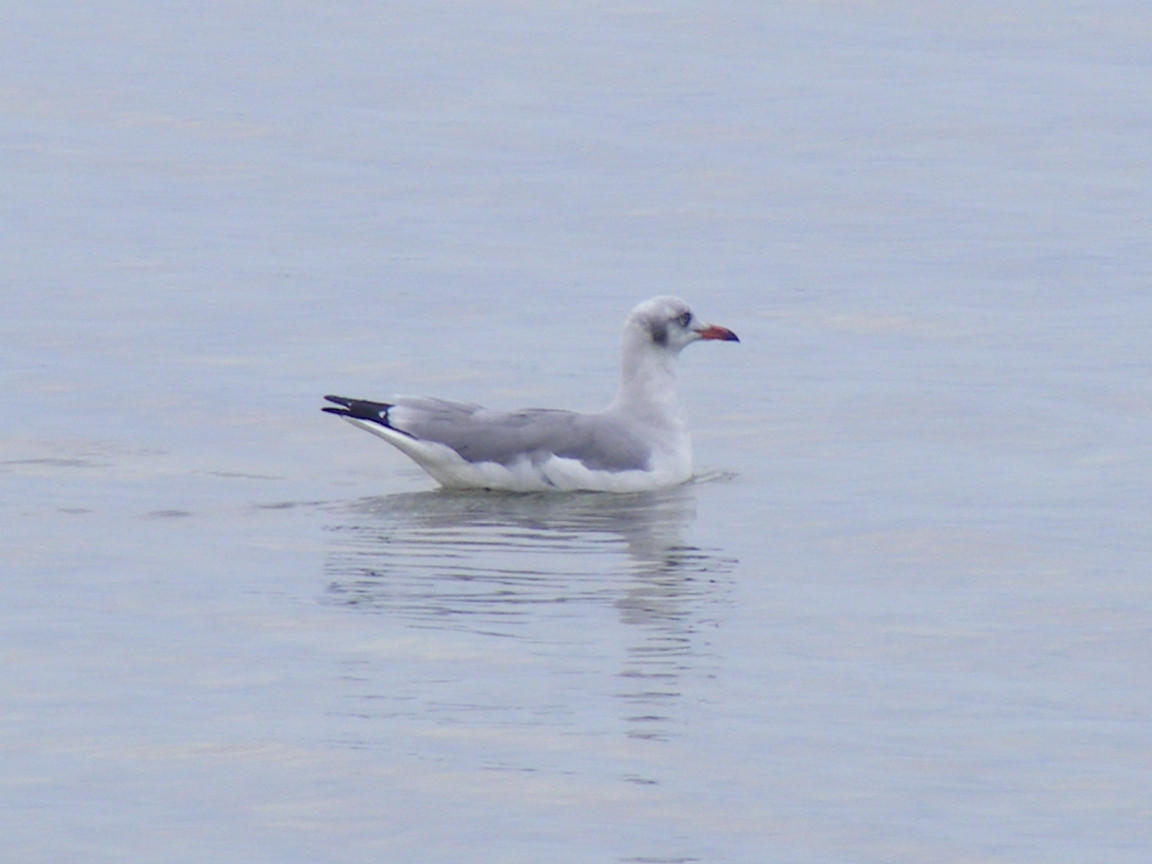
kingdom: Animalia
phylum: Chordata
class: Aves
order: Charadriiformes
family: Laridae
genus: Chroicocephalus
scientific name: Chroicocephalus cirrocephalus
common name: Grey-headed gull
